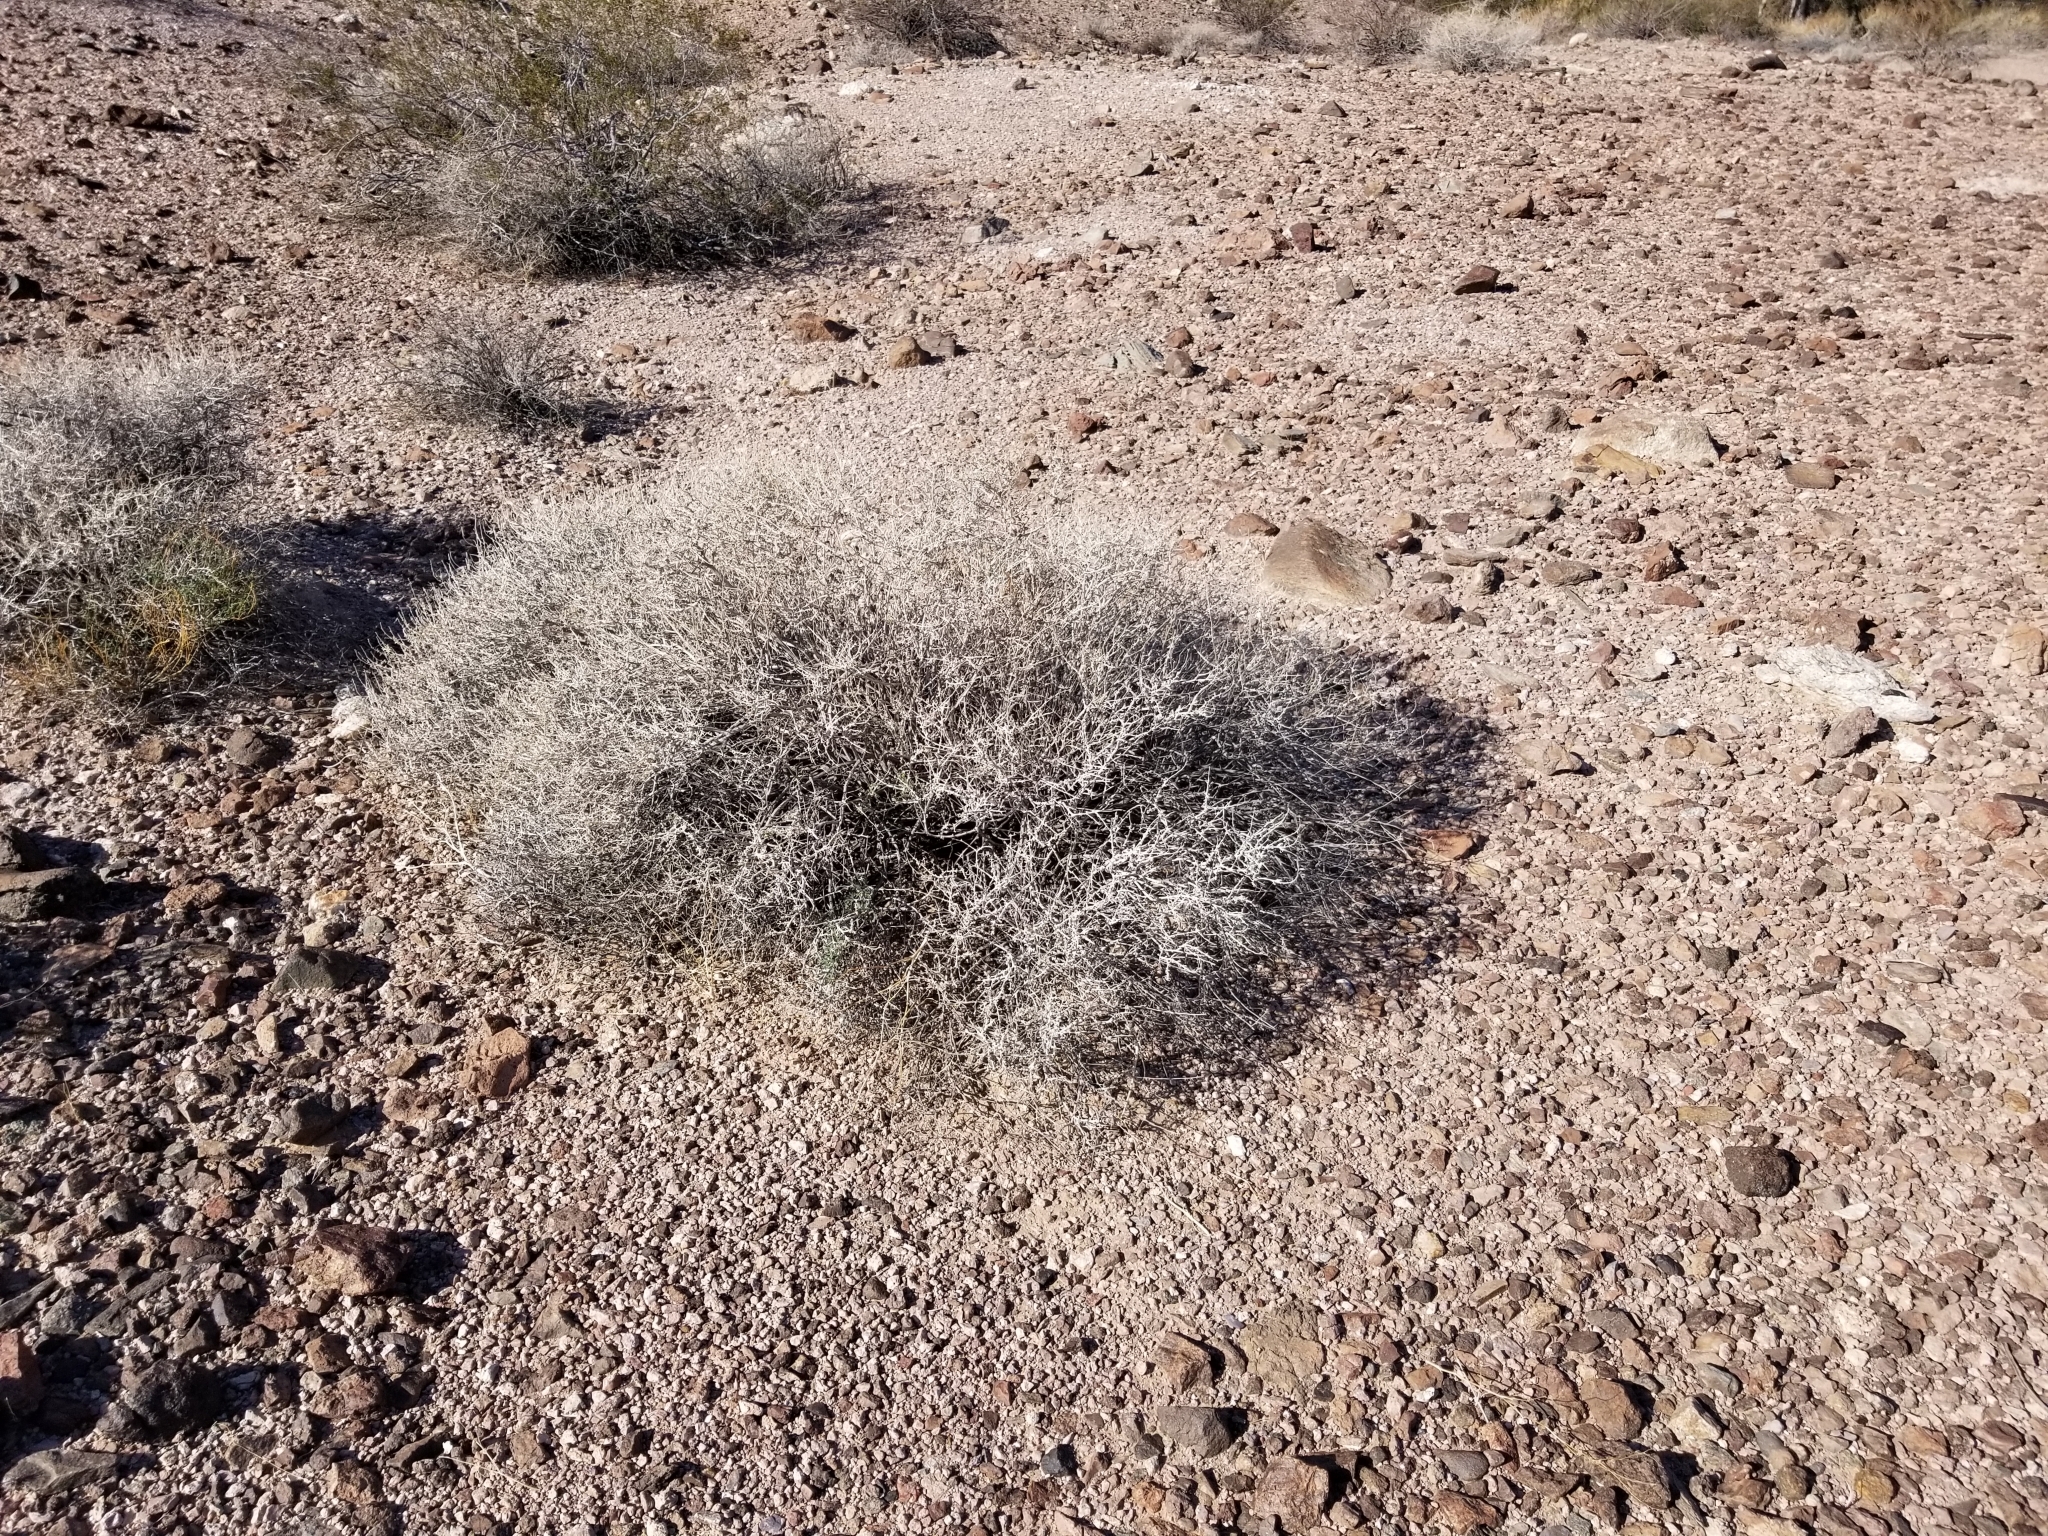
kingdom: Plantae
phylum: Tracheophyta
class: Magnoliopsida
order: Asterales
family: Asteraceae
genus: Ambrosia
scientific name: Ambrosia dumosa
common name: Bur-sage
